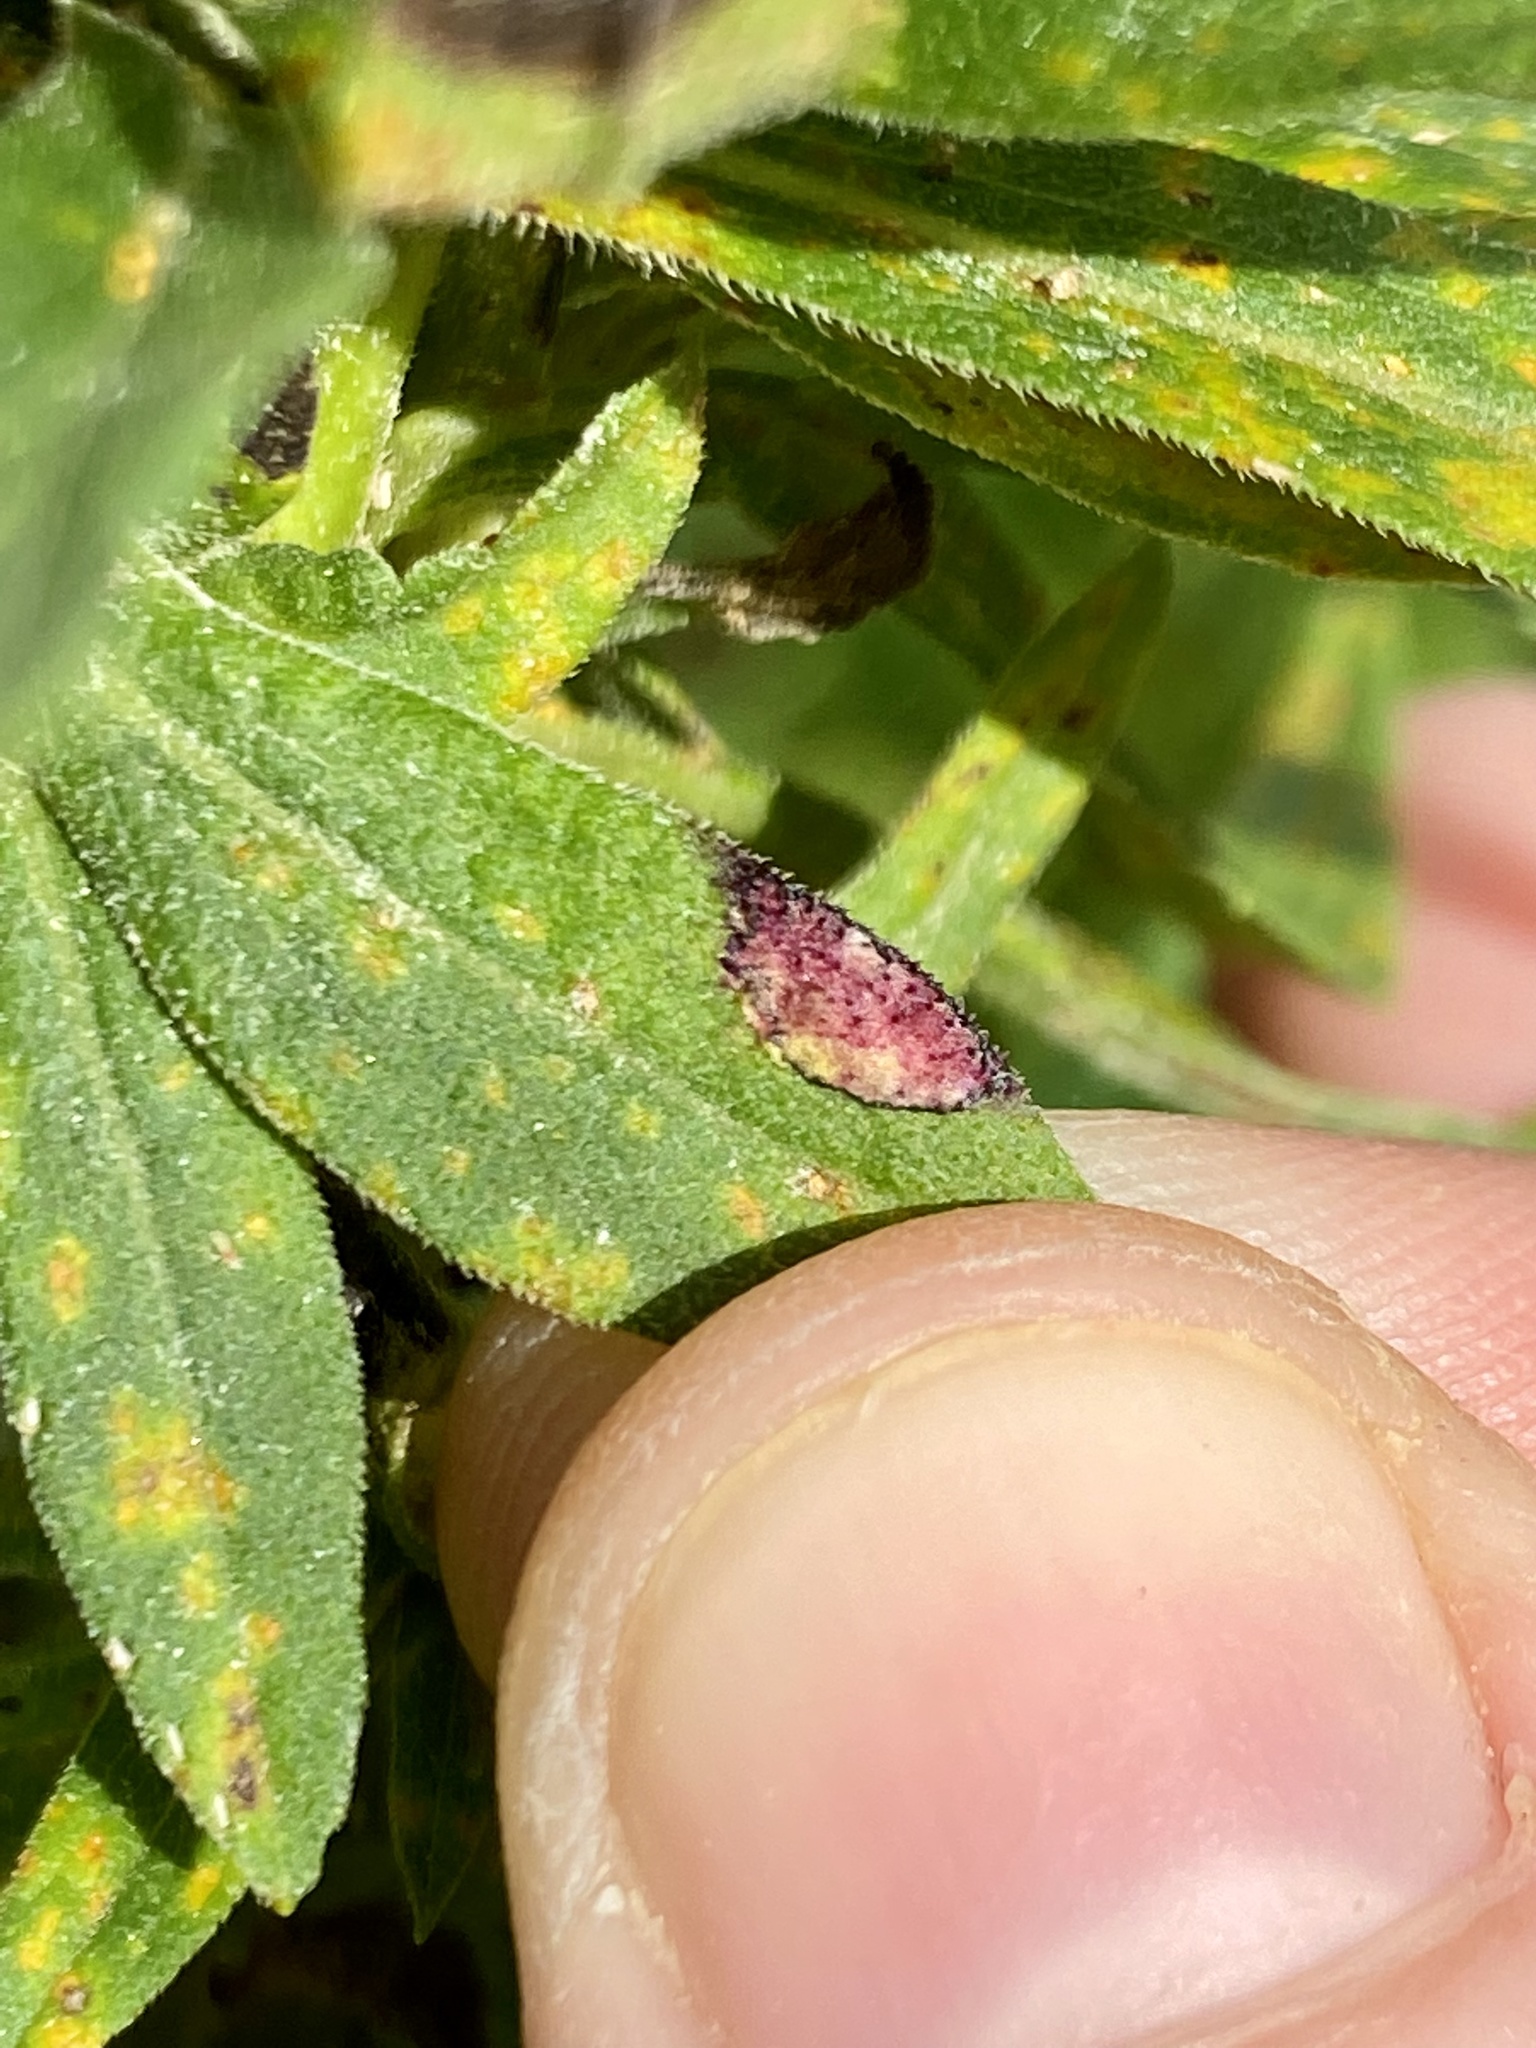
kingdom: Animalia
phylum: Arthropoda
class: Insecta
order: Diptera
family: Cecidomyiidae
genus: Asteromyia
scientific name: Asteromyia carbonifera
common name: Carbonifera goldenrod gall midge
